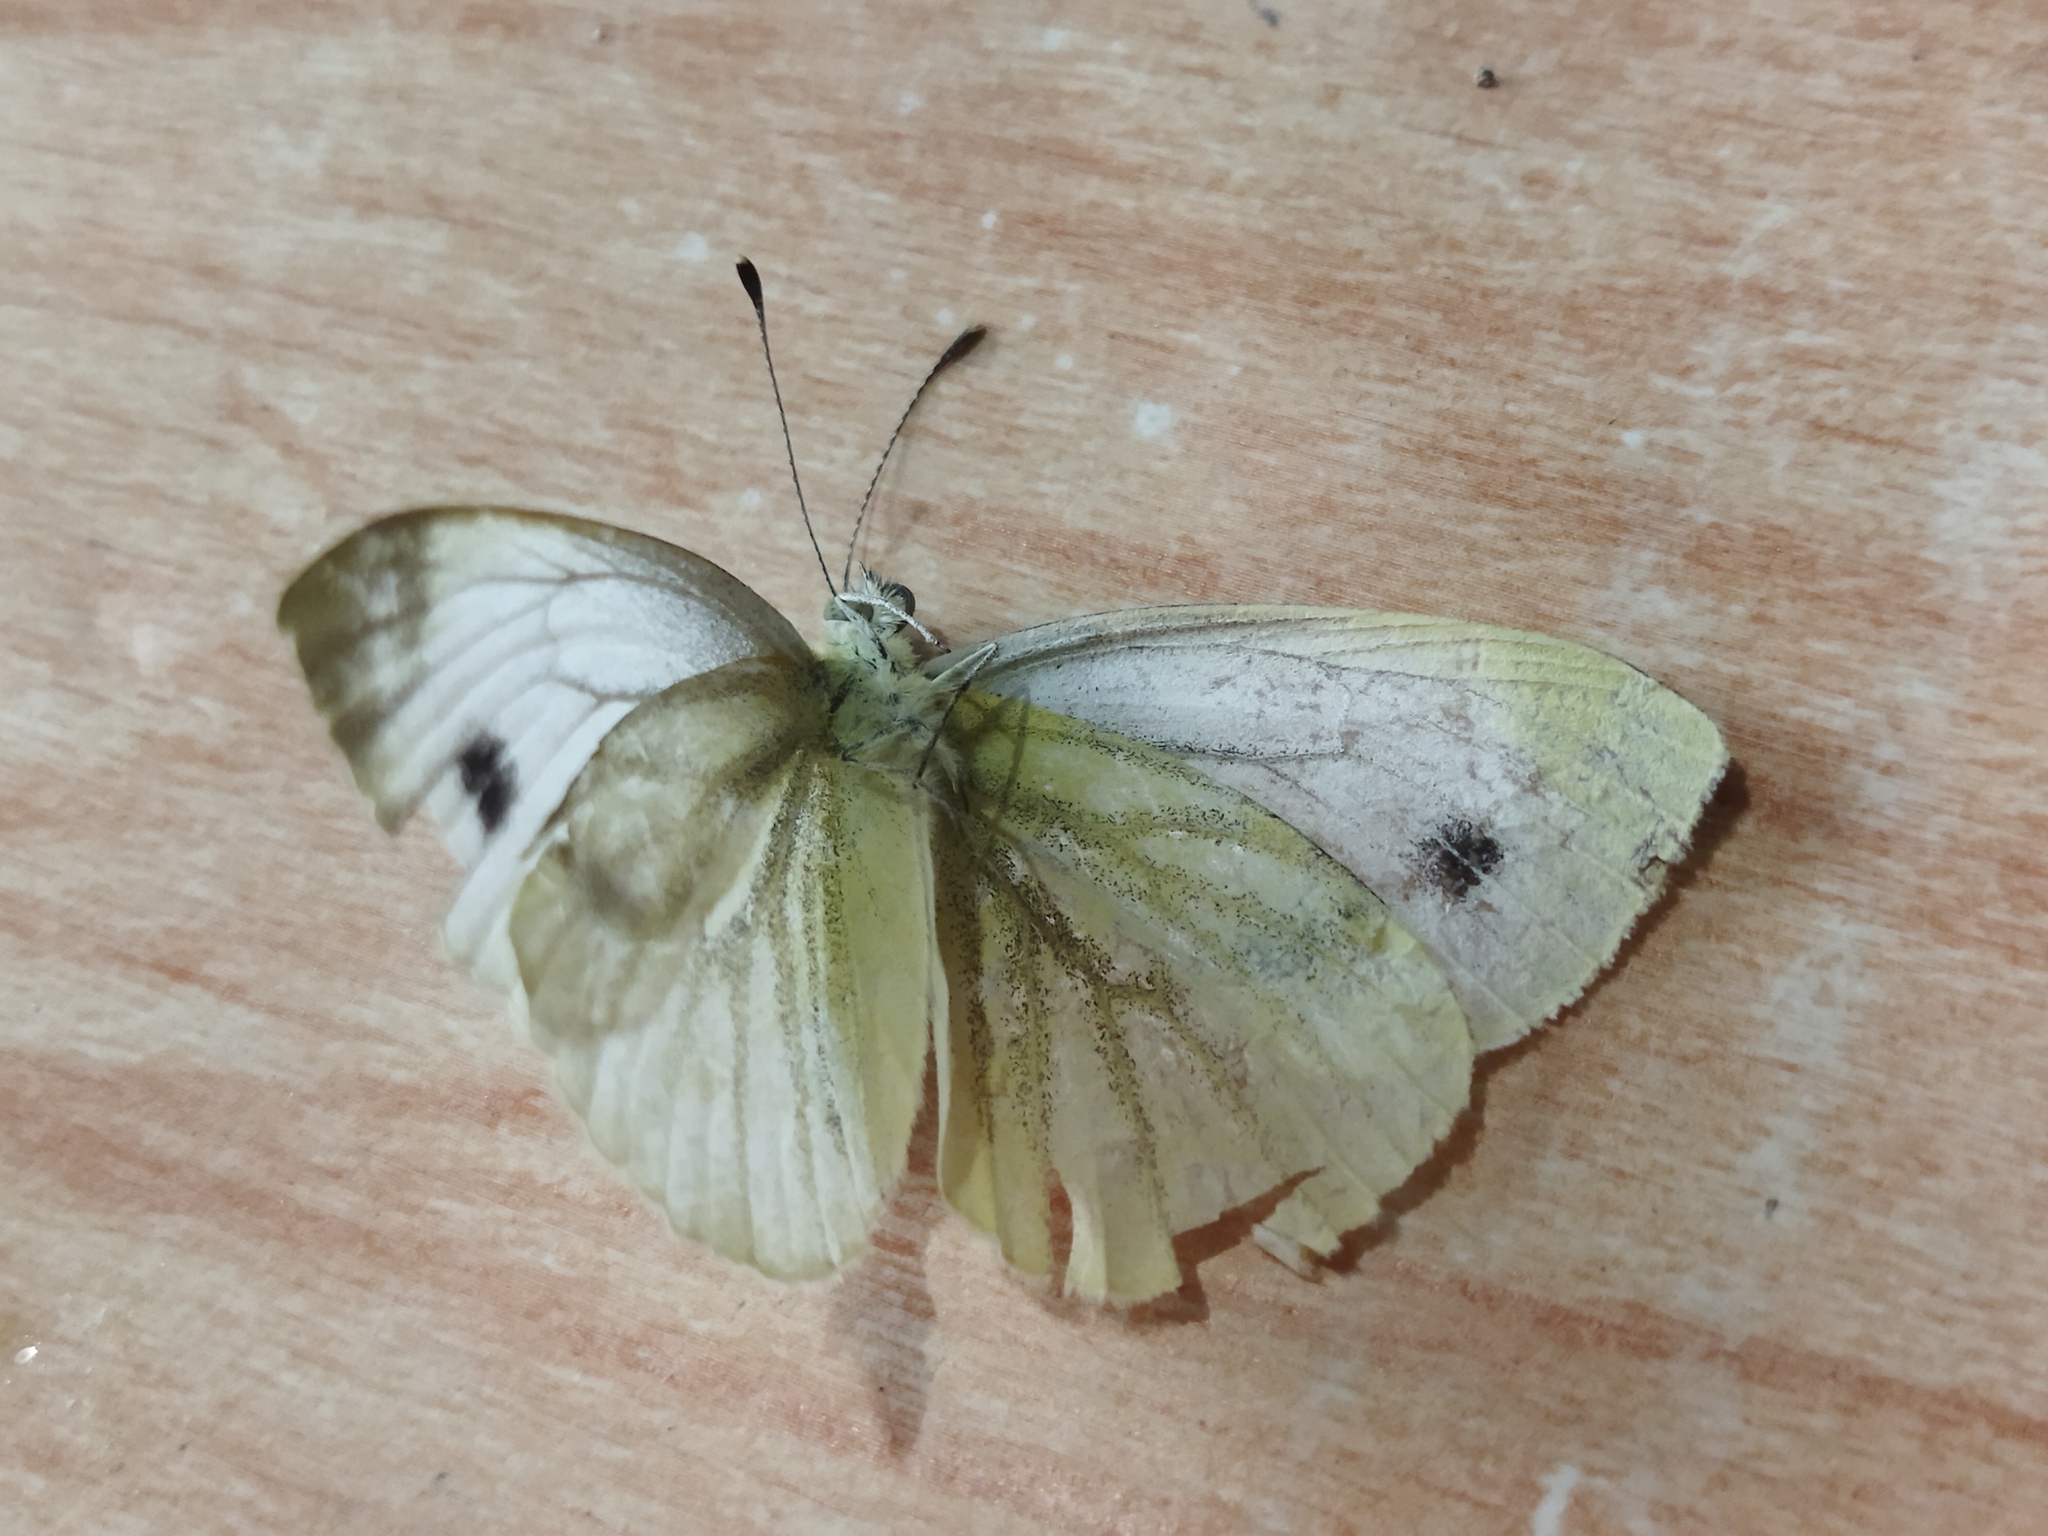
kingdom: Animalia
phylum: Arthropoda
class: Insecta
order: Lepidoptera
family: Pieridae
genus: Pieris
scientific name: Pieris napi
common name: Green-veined white
